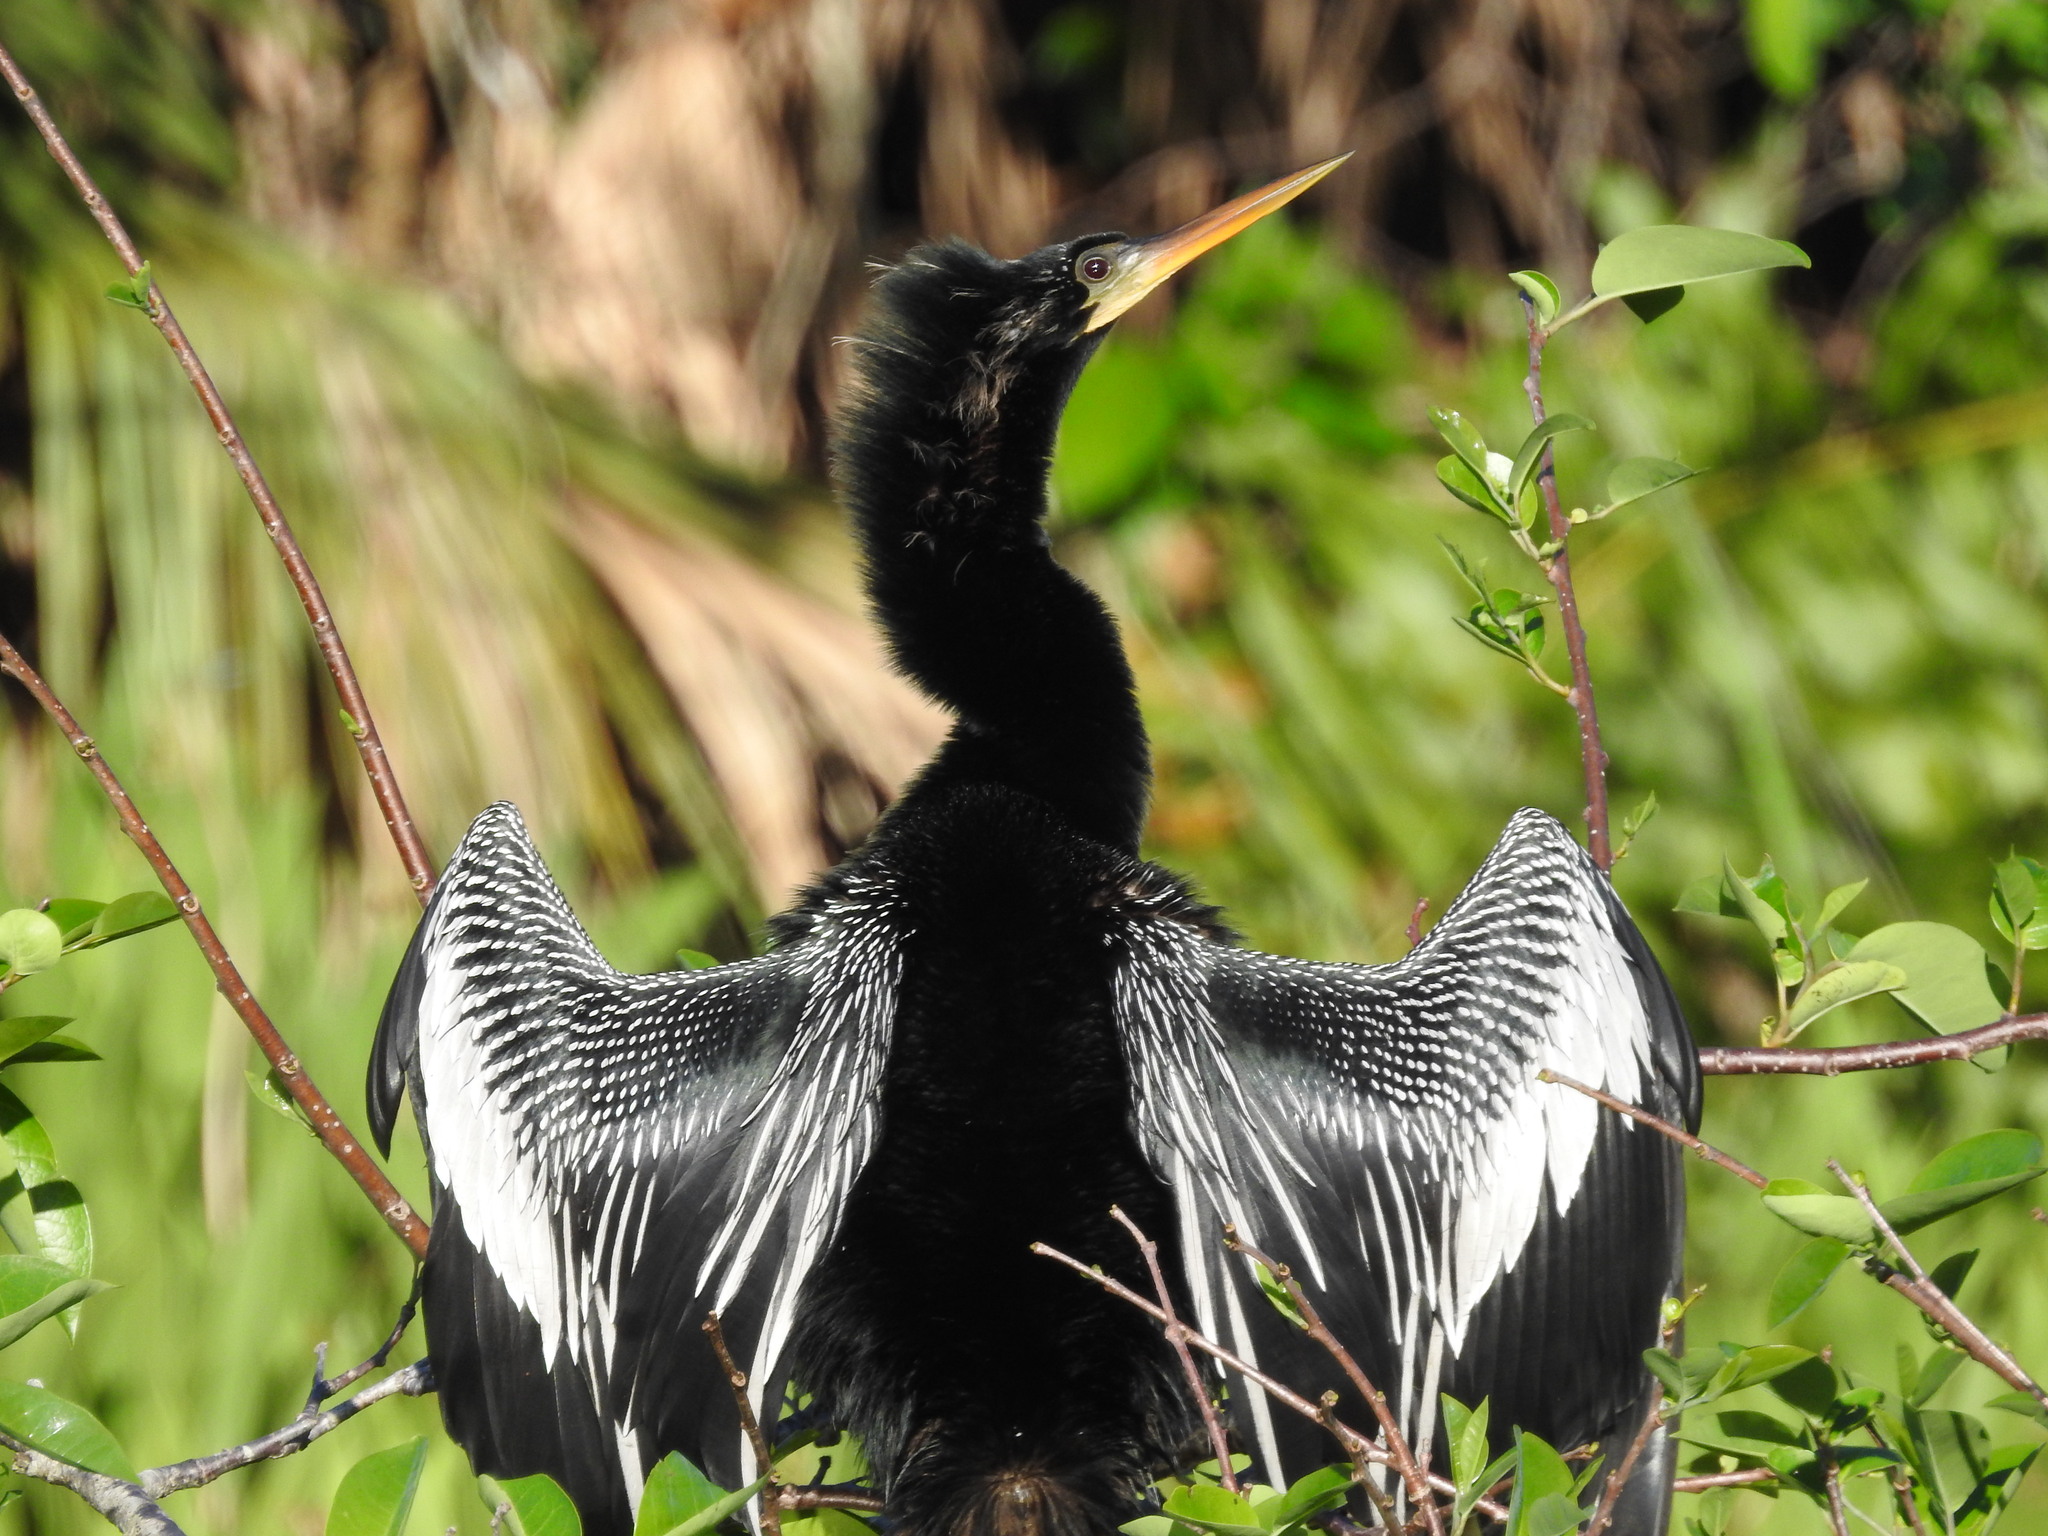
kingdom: Animalia
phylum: Chordata
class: Aves
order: Suliformes
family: Anhingidae
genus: Anhinga
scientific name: Anhinga anhinga
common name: Anhinga
